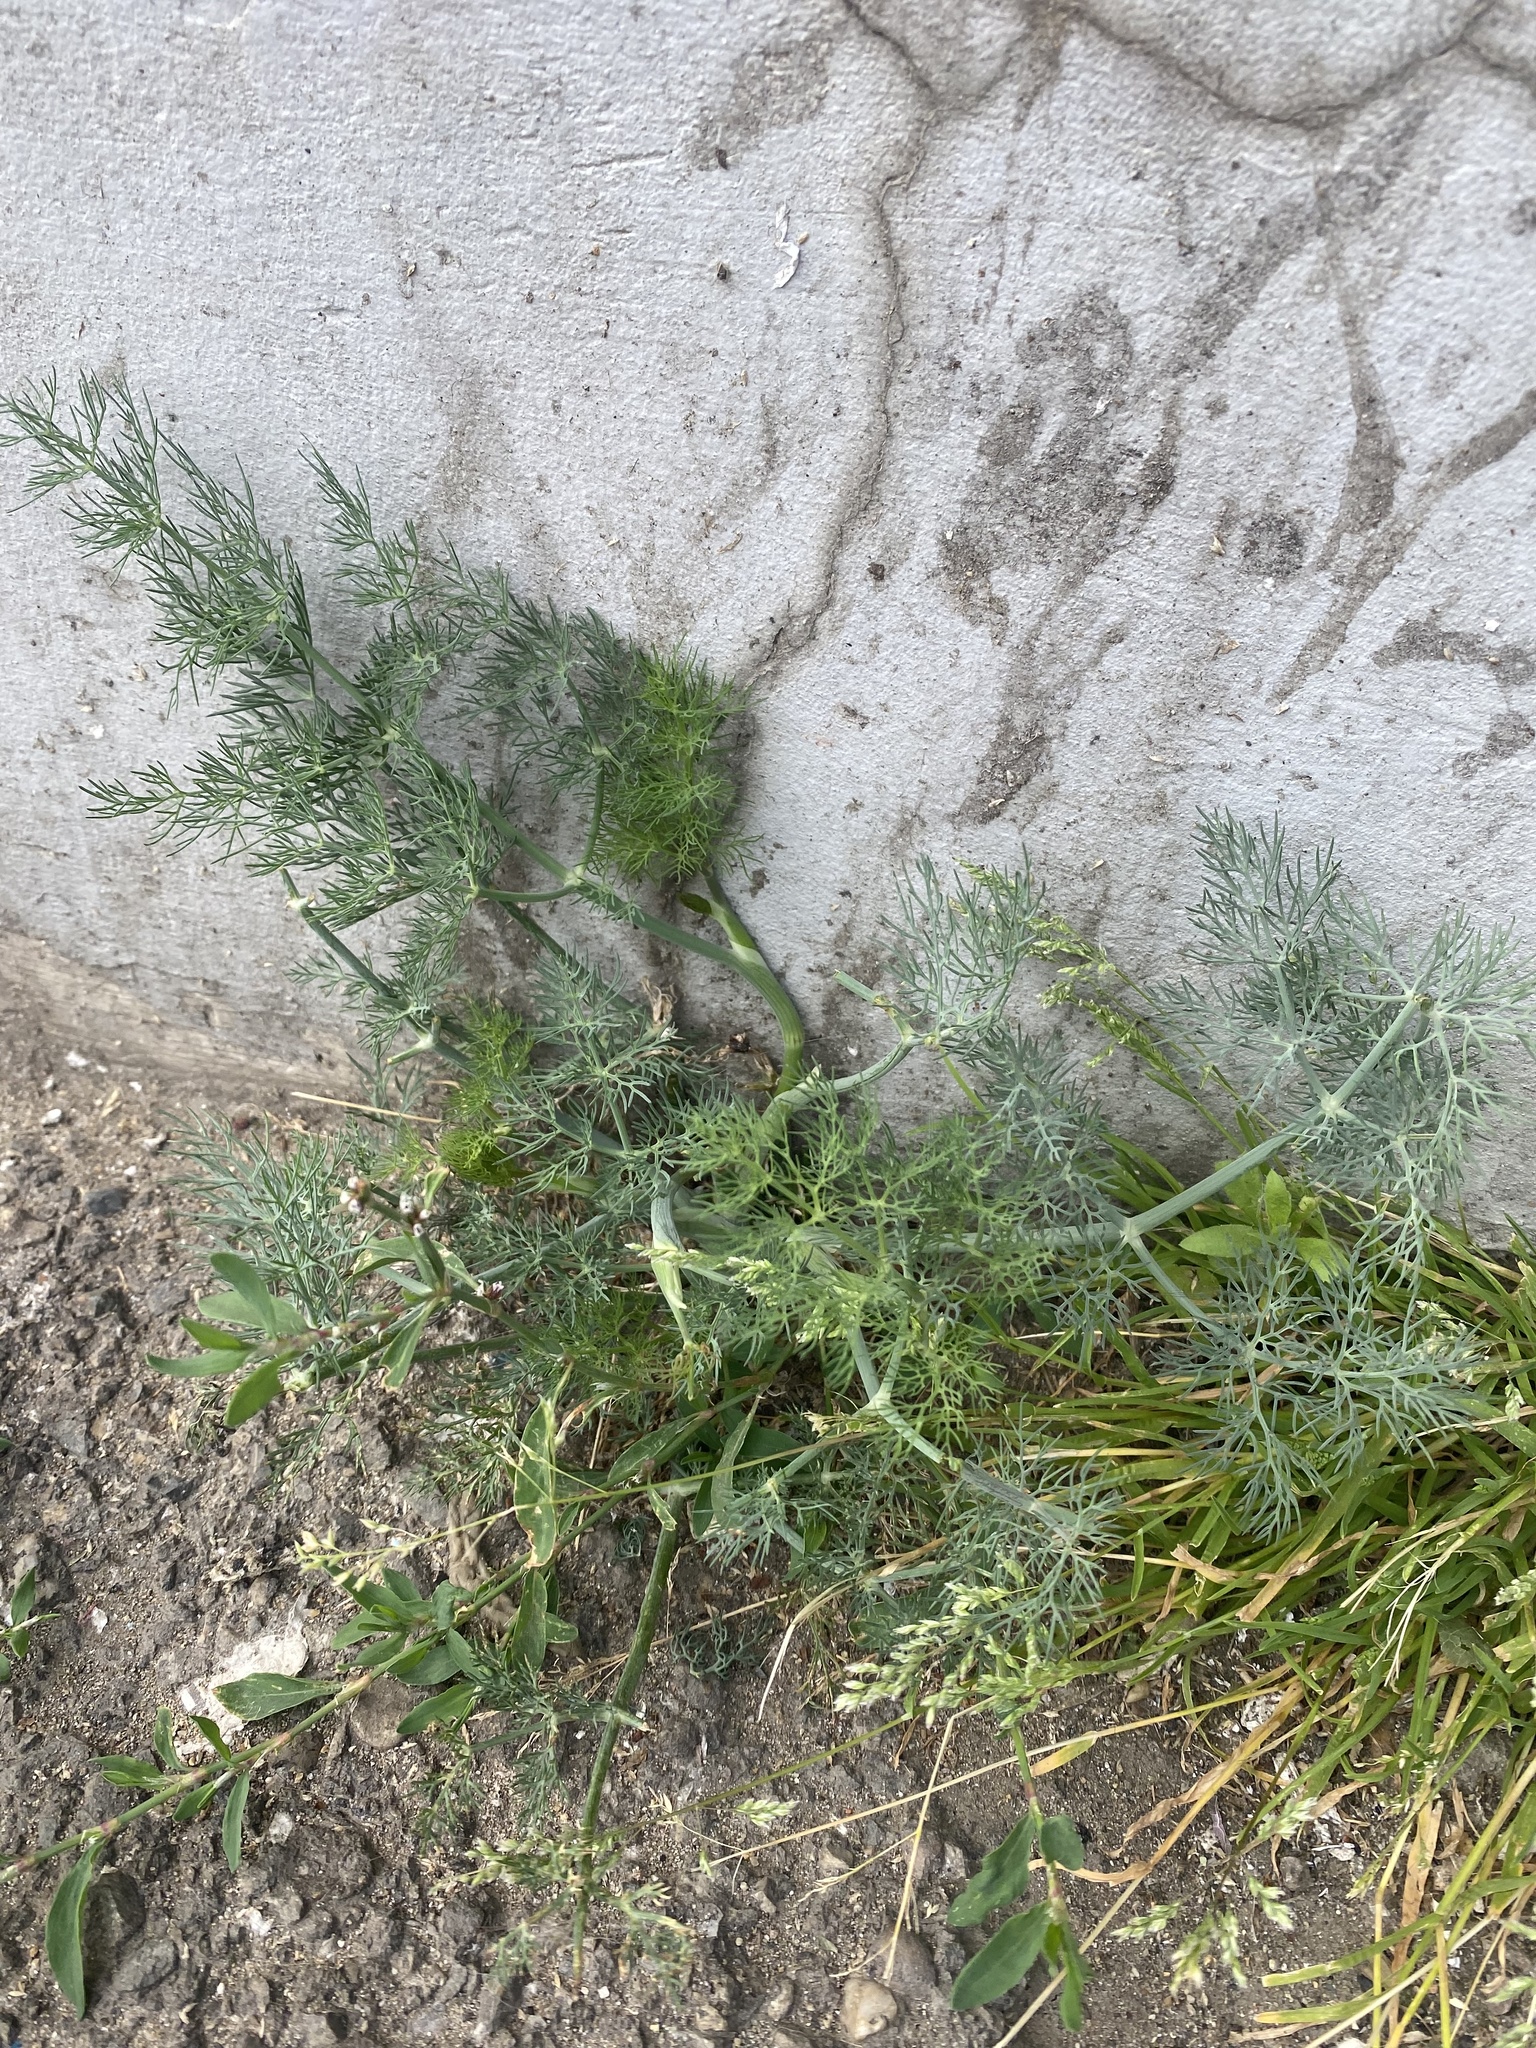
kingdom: Plantae
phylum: Tracheophyta
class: Magnoliopsida
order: Apiales
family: Apiaceae
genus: Anethum
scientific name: Anethum graveolens
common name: Dill
